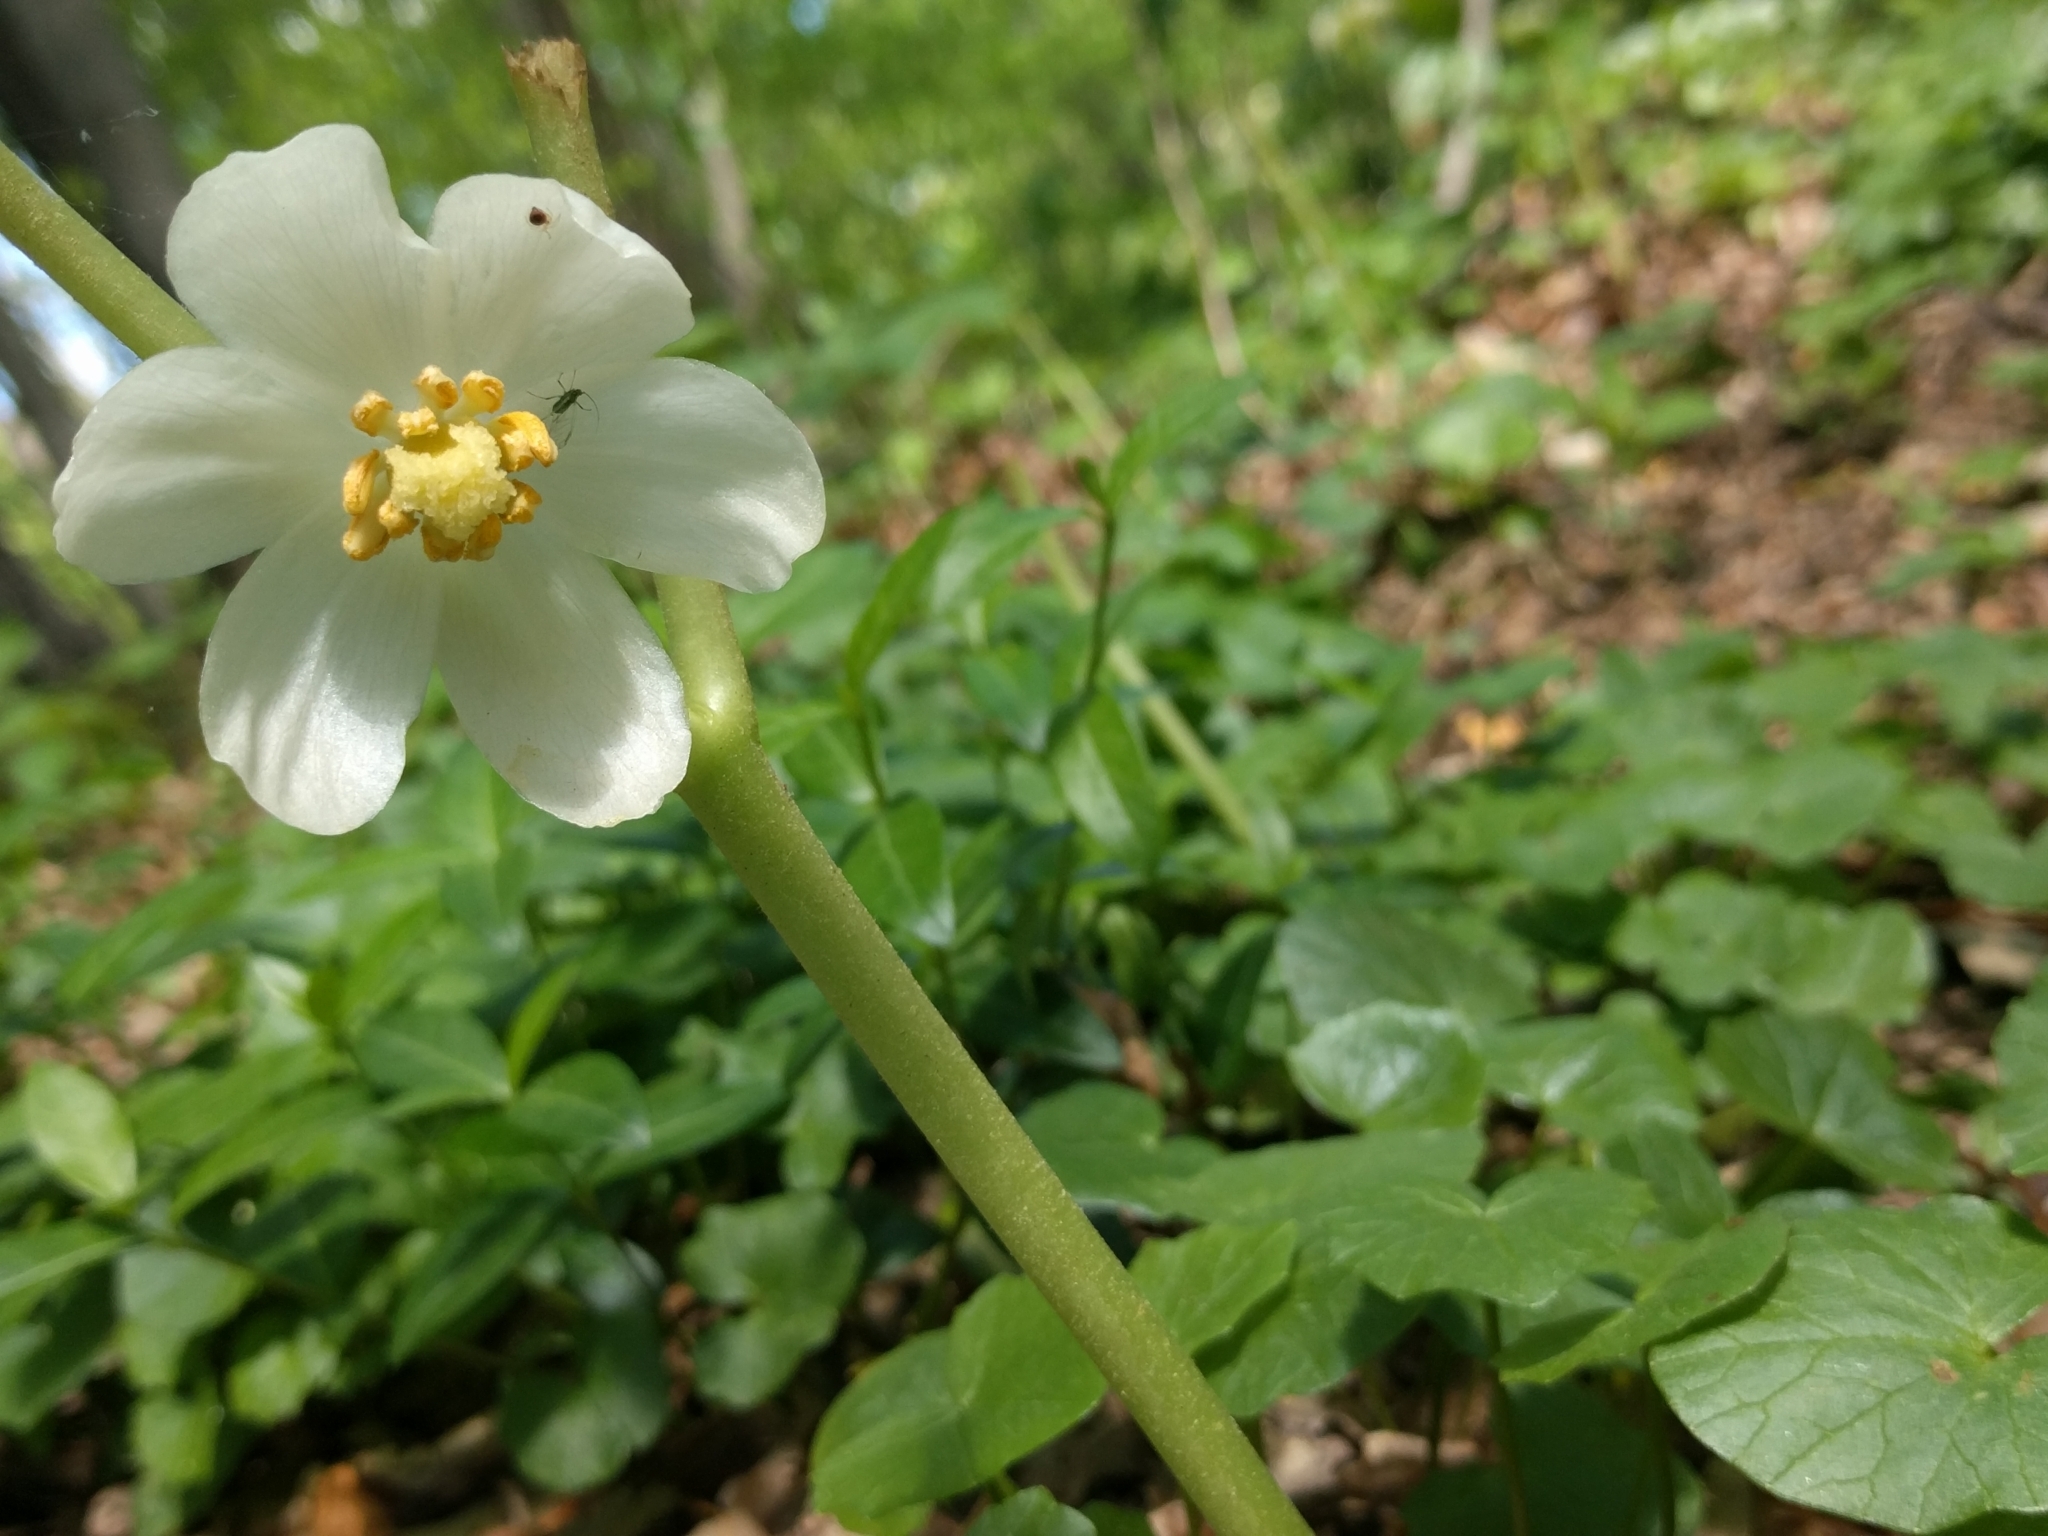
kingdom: Plantae
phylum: Tracheophyta
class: Magnoliopsida
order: Ranunculales
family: Berberidaceae
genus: Podophyllum
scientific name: Podophyllum peltatum
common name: Wild mandrake
